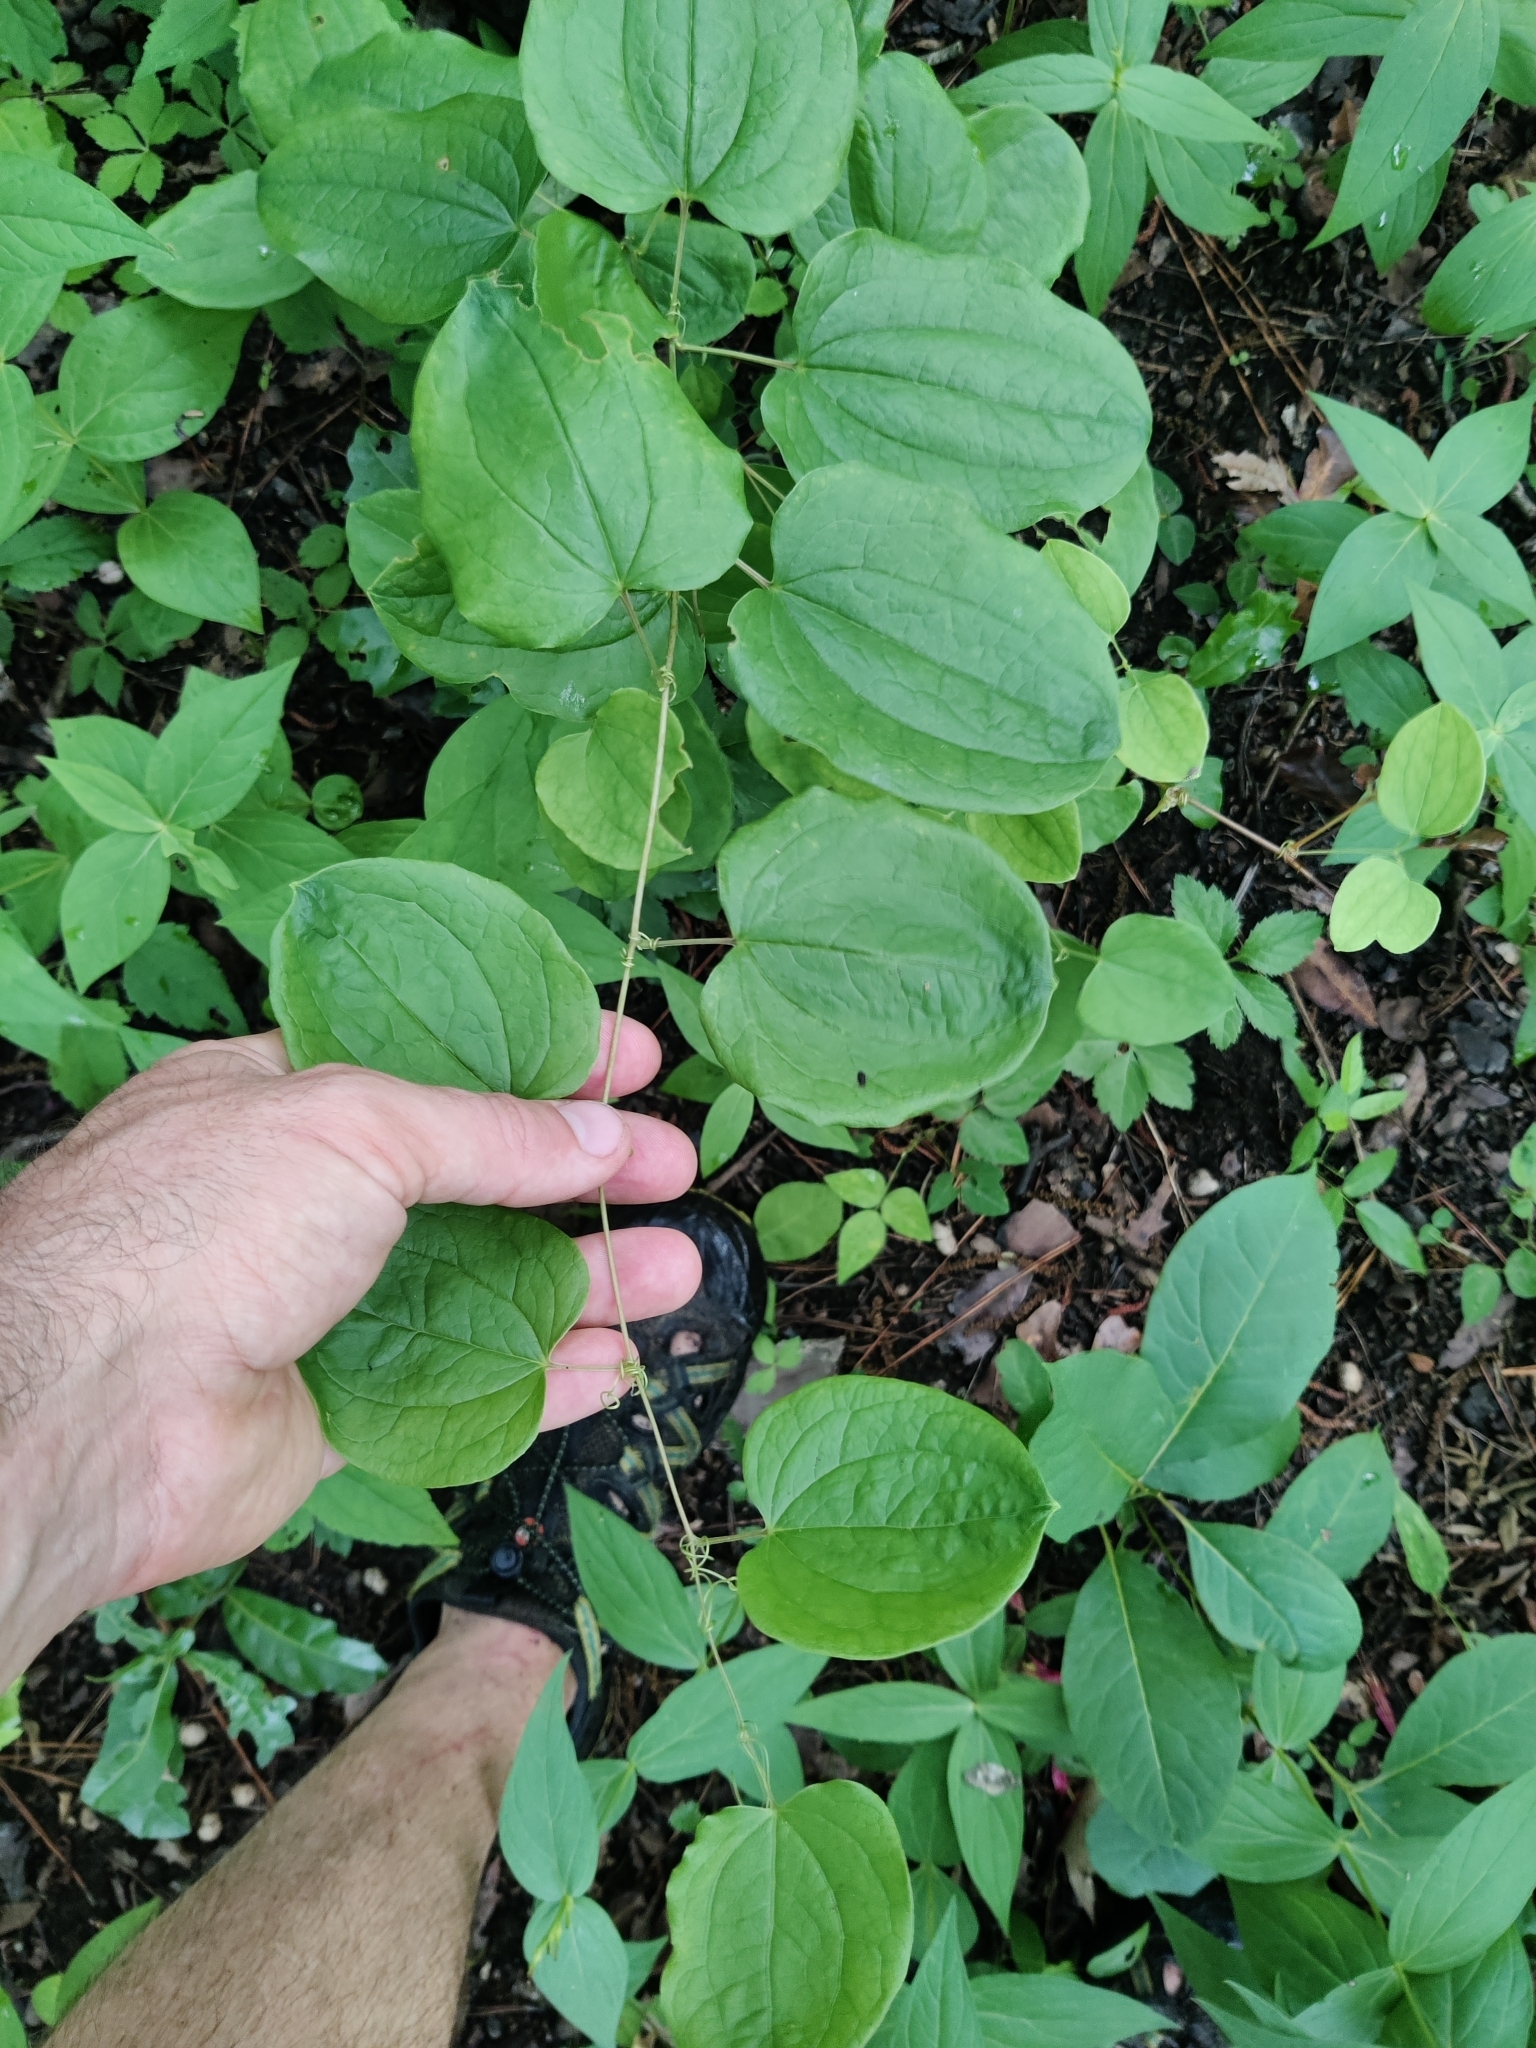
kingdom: Plantae
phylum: Tracheophyta
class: Liliopsida
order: Liliales
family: Smilacaceae
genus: Smilax
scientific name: Smilax lasioneura
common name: Blue ridge carrionflower
